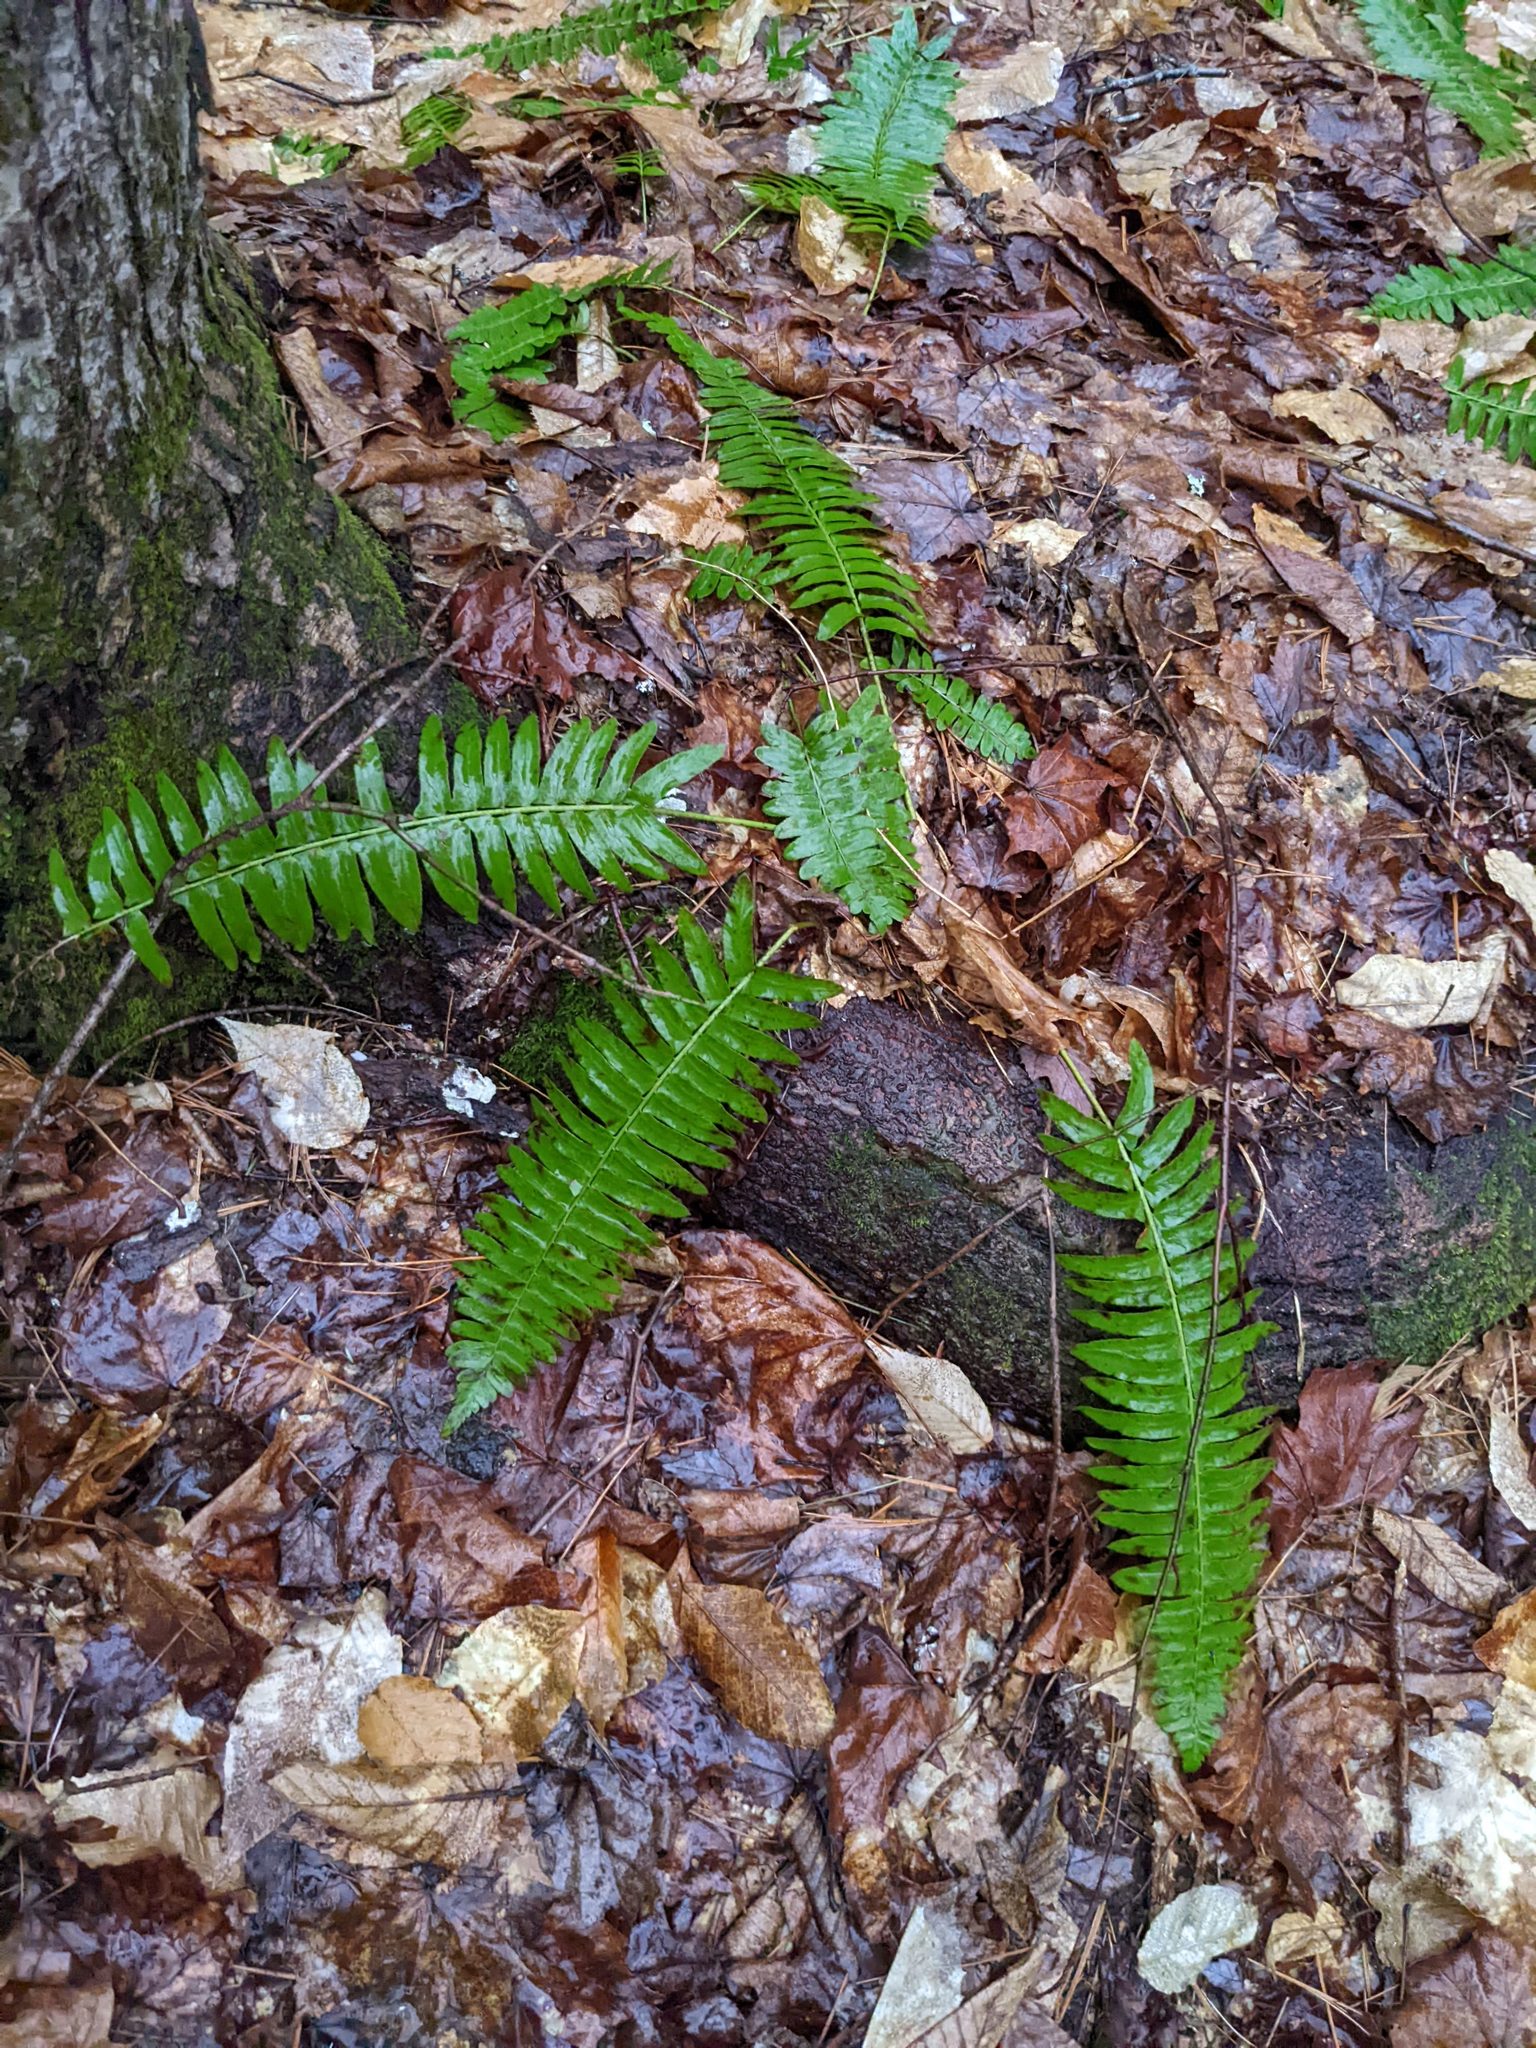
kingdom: Plantae
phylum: Tracheophyta
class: Polypodiopsida
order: Polypodiales
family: Dryopteridaceae
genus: Polystichum
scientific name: Polystichum acrostichoides
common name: Christmas fern
